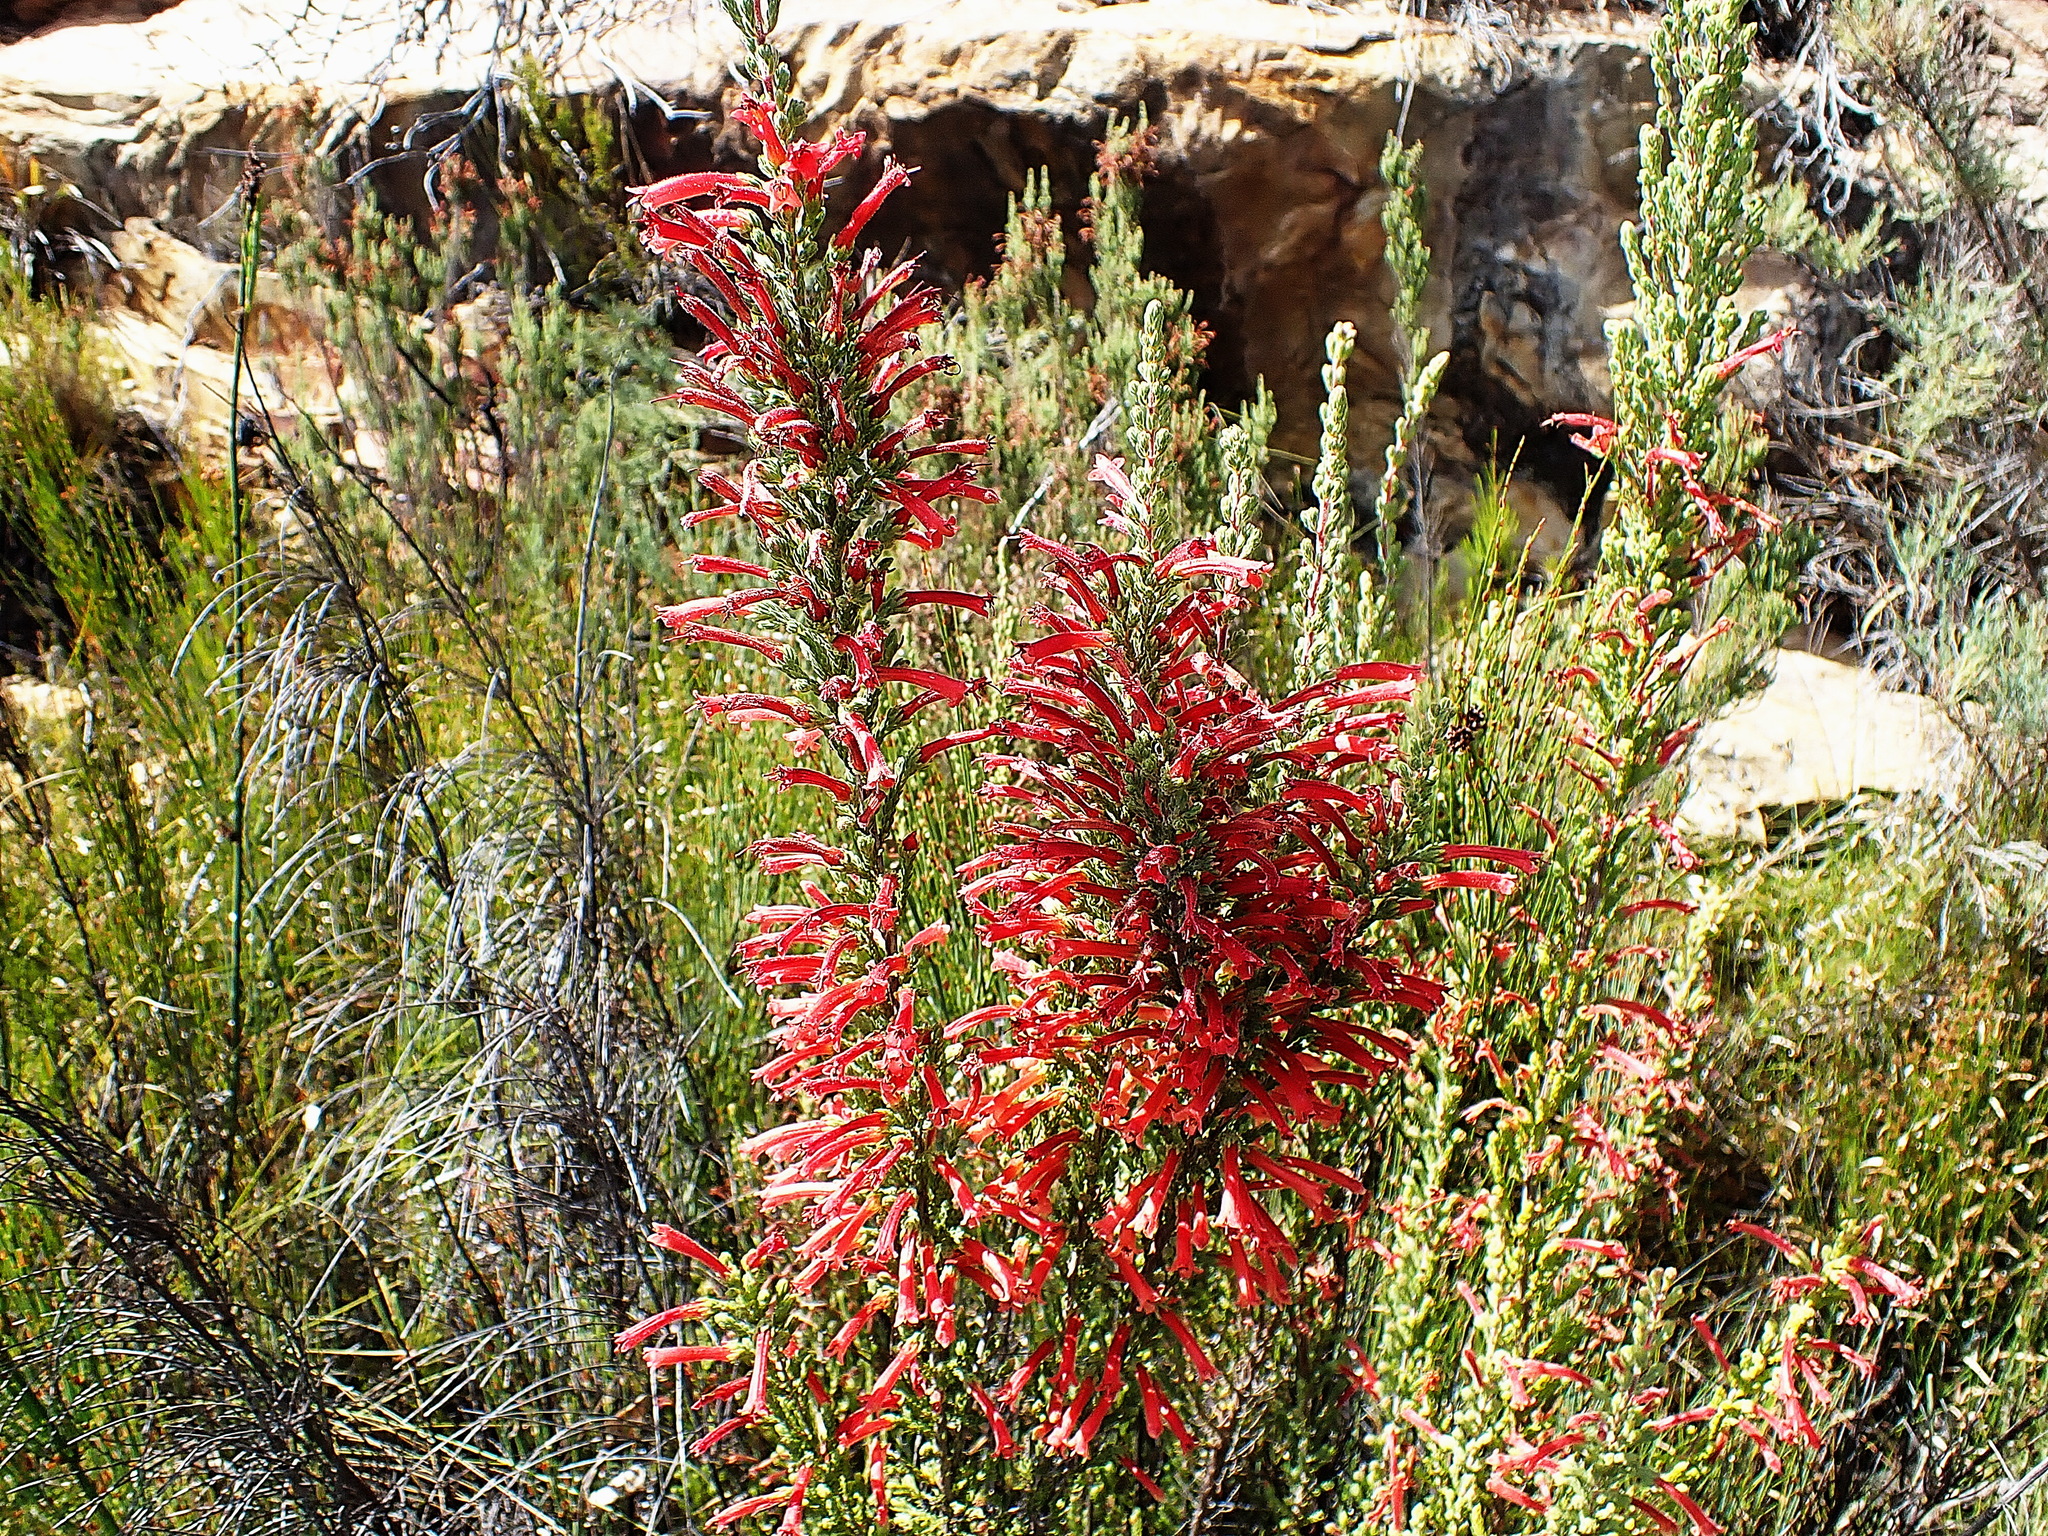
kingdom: Plantae
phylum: Tracheophyta
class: Magnoliopsida
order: Ericales
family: Ericaceae
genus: Erica
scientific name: Erica curviflora
